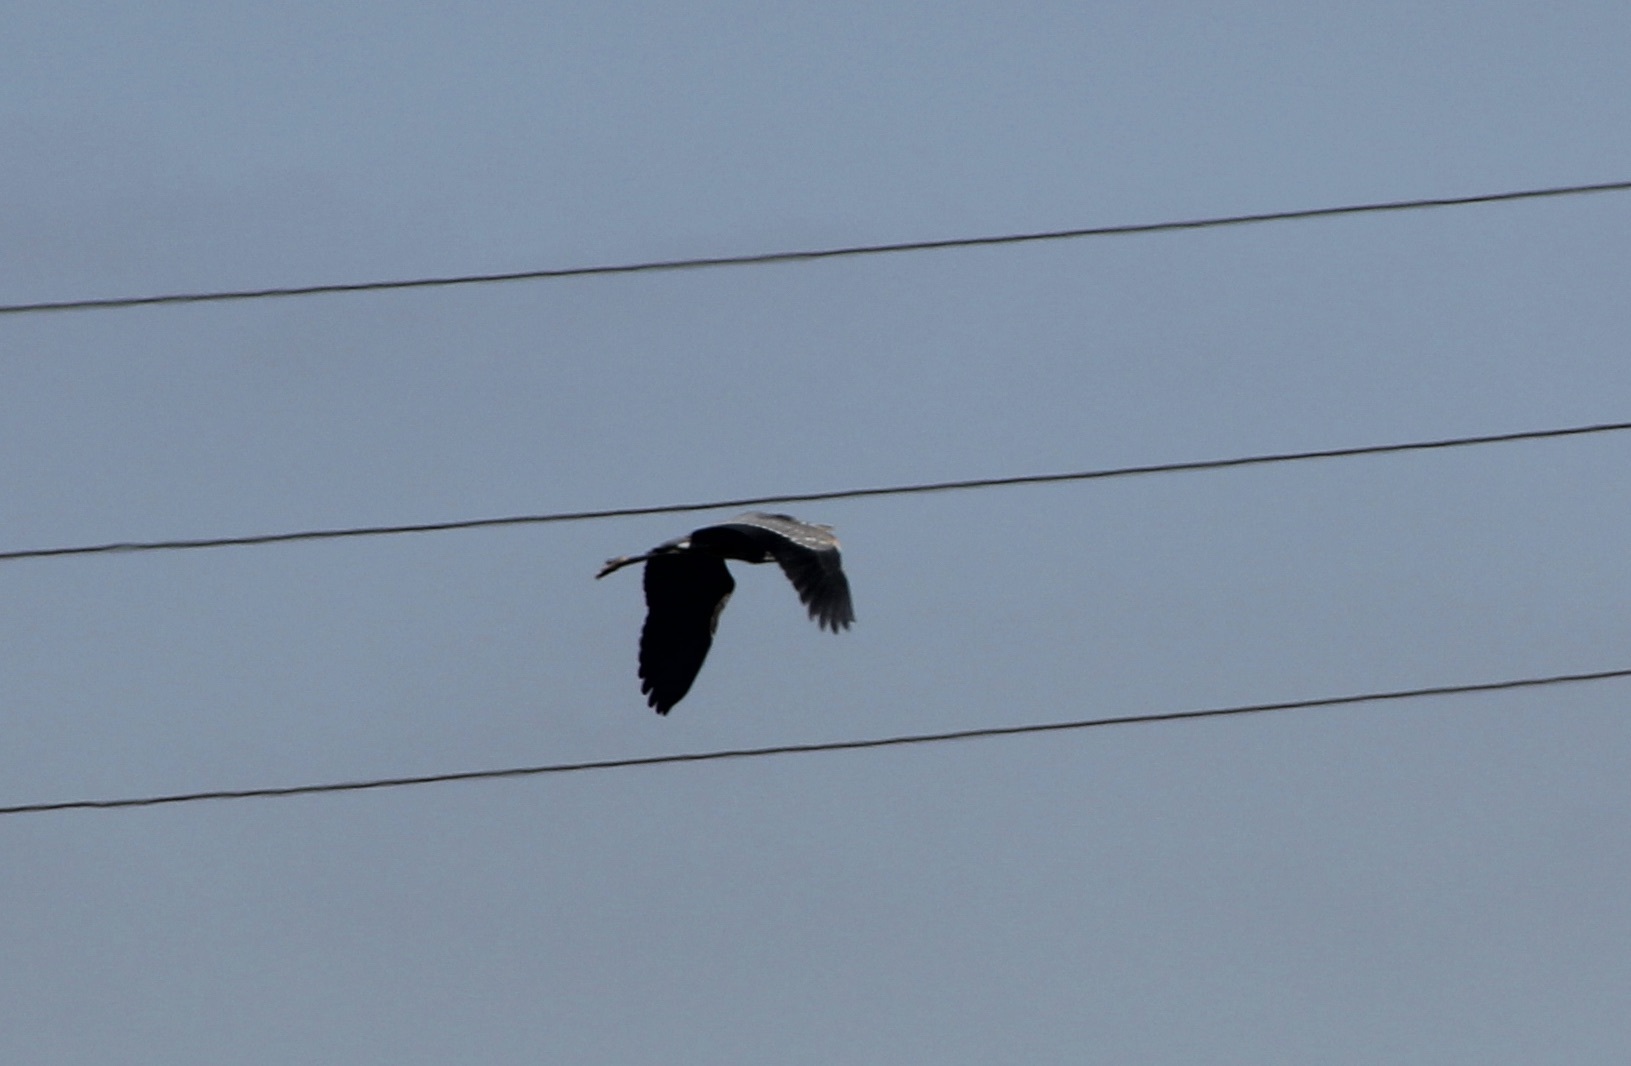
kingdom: Animalia
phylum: Chordata
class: Aves
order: Pelecaniformes
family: Ardeidae
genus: Ardea
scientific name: Ardea herodias
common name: Great blue heron
